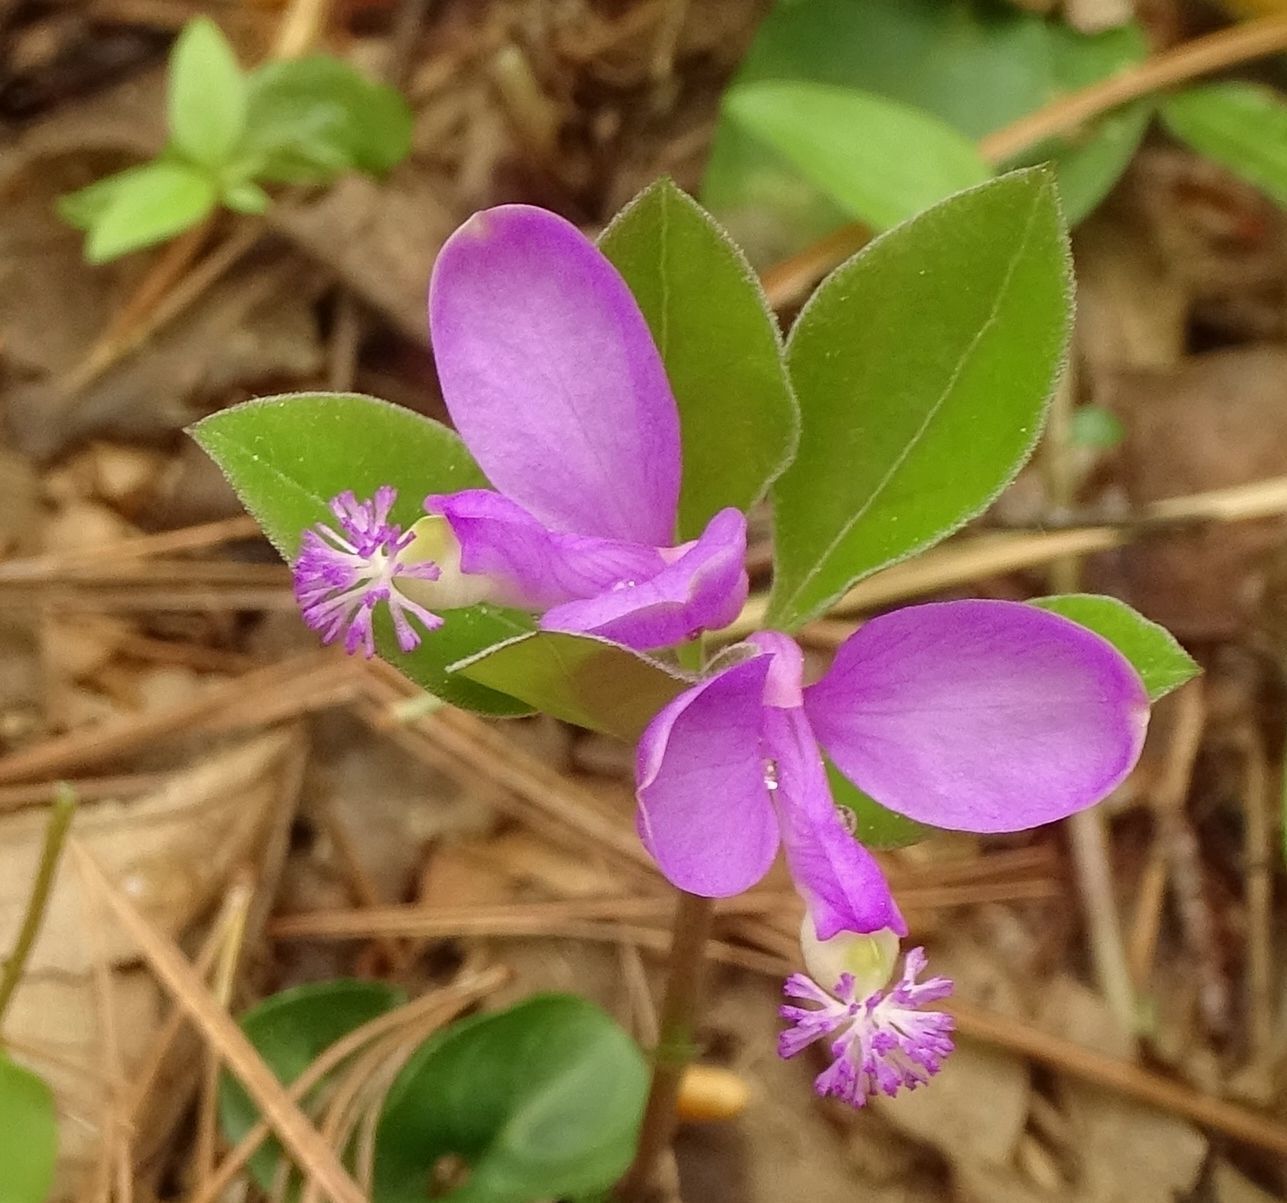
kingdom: Plantae
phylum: Tracheophyta
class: Magnoliopsida
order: Fabales
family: Polygalaceae
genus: Polygaloides
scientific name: Polygaloides paucifolia
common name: Bird-on-the-wing
